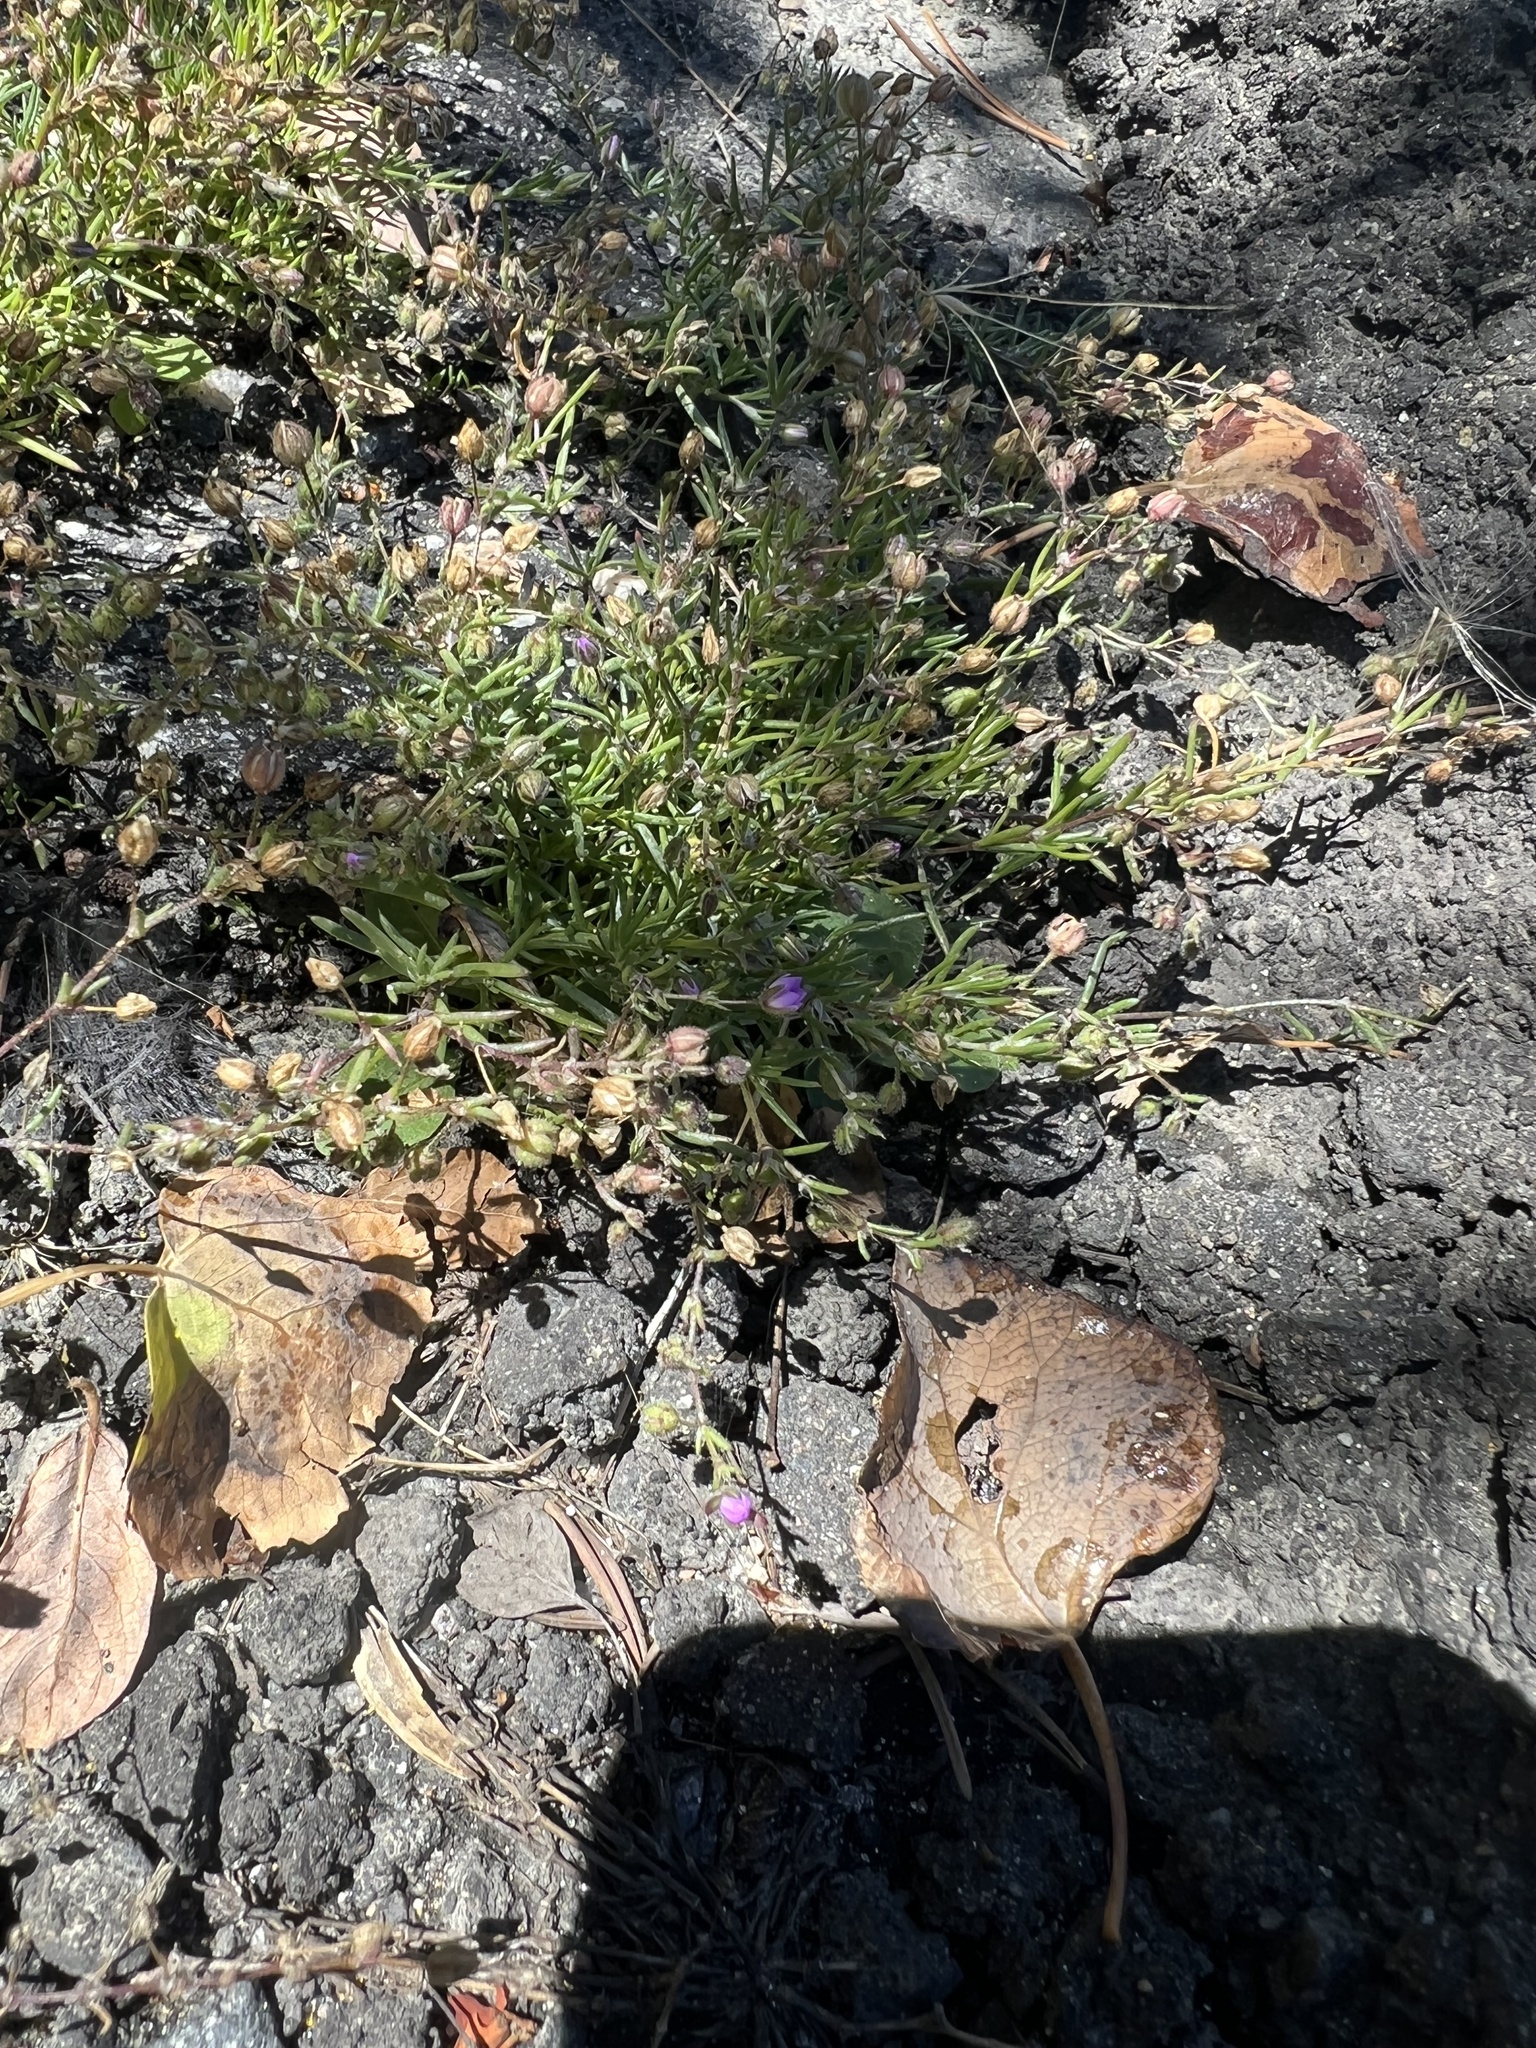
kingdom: Plantae
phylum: Tracheophyta
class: Magnoliopsida
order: Caryophyllales
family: Caryophyllaceae
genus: Spergularia
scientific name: Spergularia rubra
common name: Red sand-spurrey
